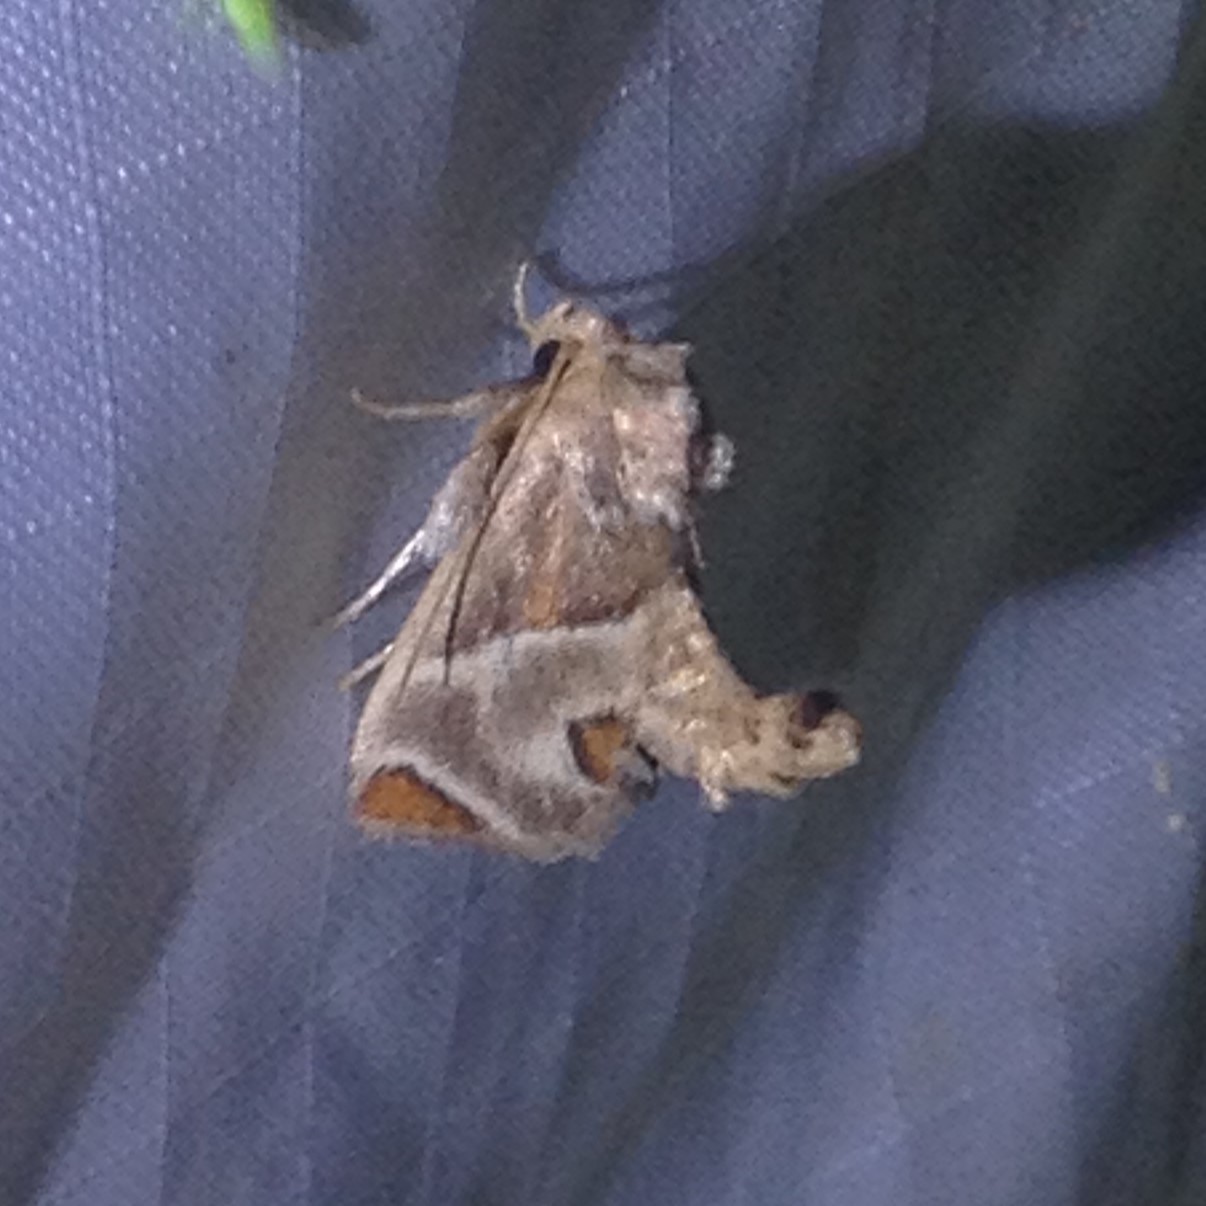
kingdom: Animalia
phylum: Arthropoda
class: Insecta
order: Lepidoptera
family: Limacodidae
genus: Apoda
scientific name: Apoda biguttata
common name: Shagreened slug moth
